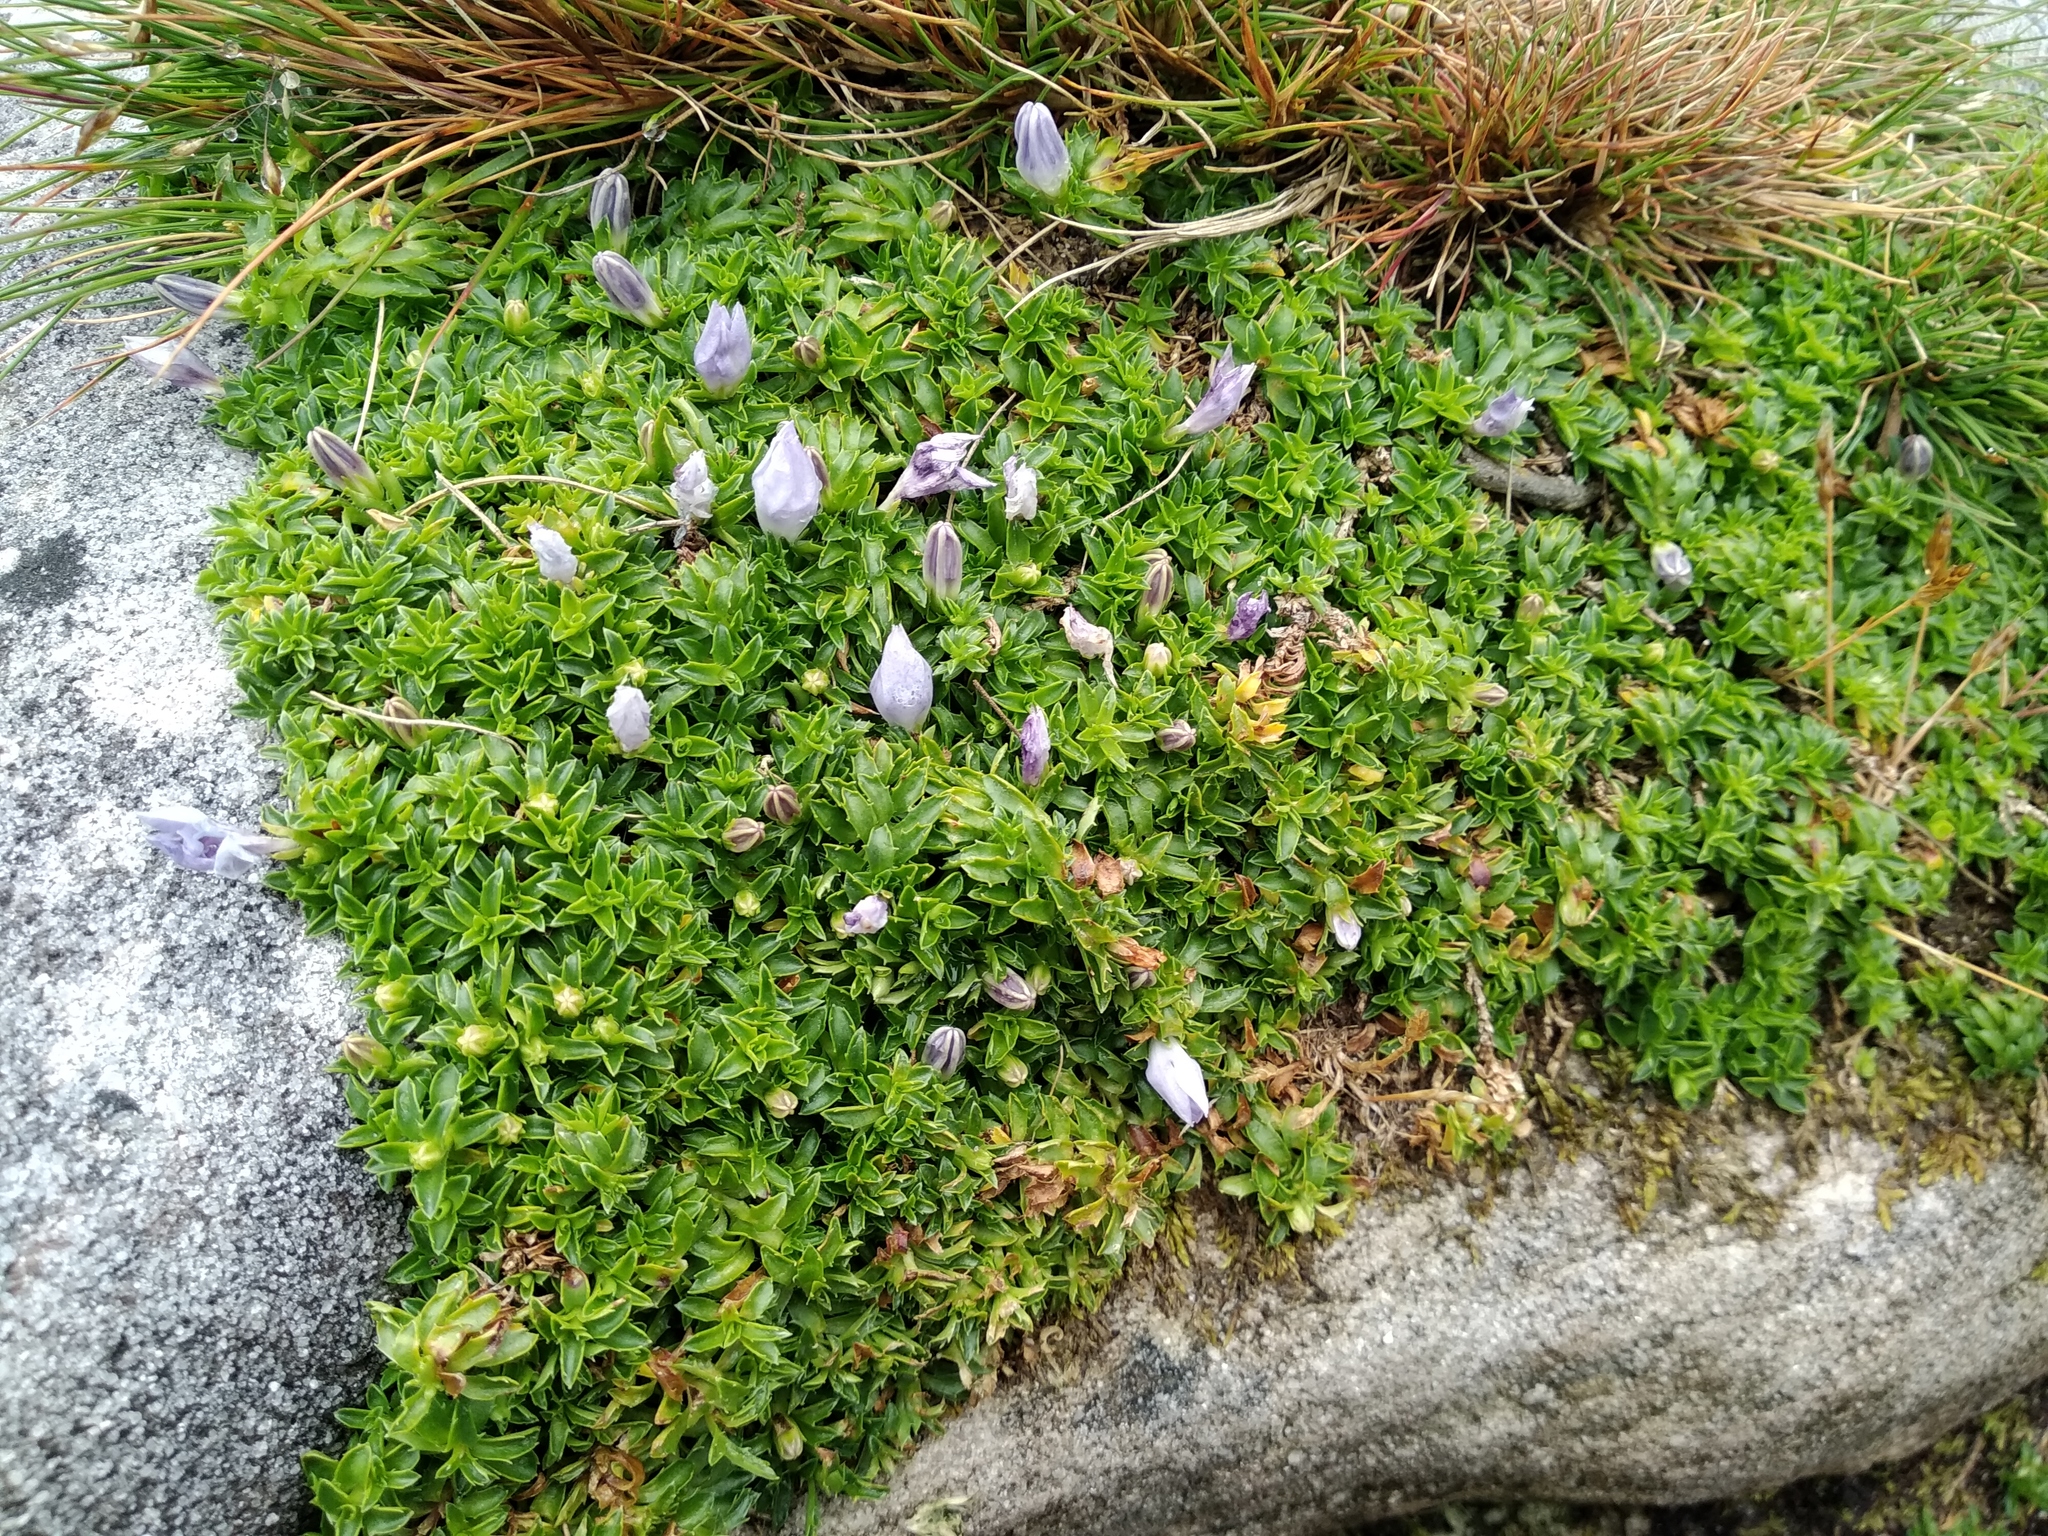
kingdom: Plantae
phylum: Tracheophyta
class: Magnoliopsida
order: Asterales
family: Campanulaceae
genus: Roella
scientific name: Roella muscosa
